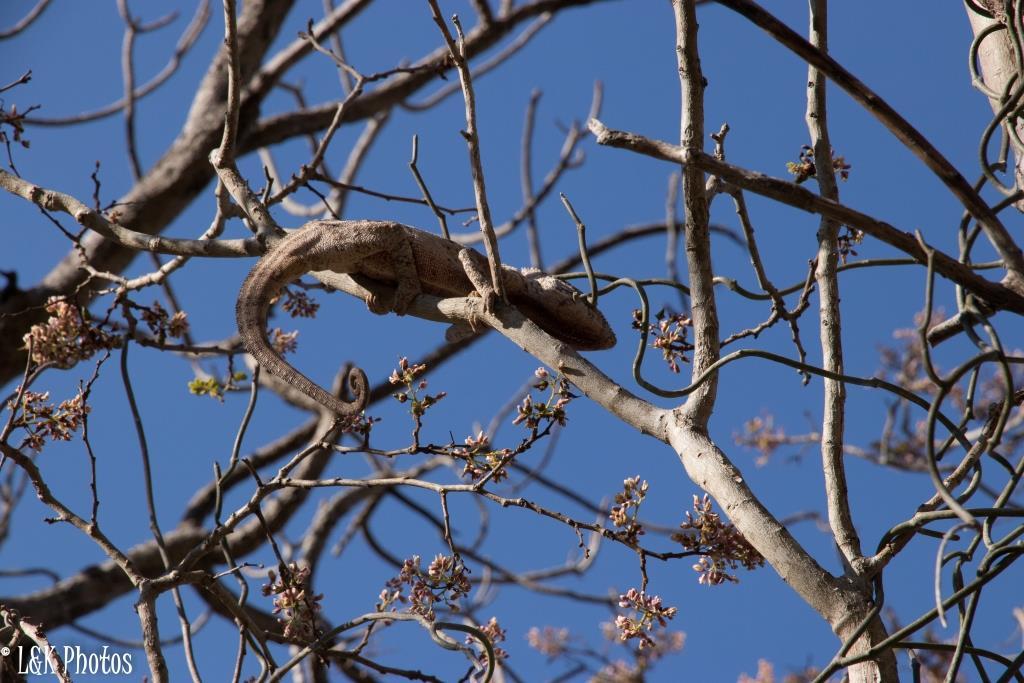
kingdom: Plantae
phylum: Tracheophyta
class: Magnoliopsida
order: Fabales
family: Fabaceae
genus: Dalbergia
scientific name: Dalbergia pervillei
